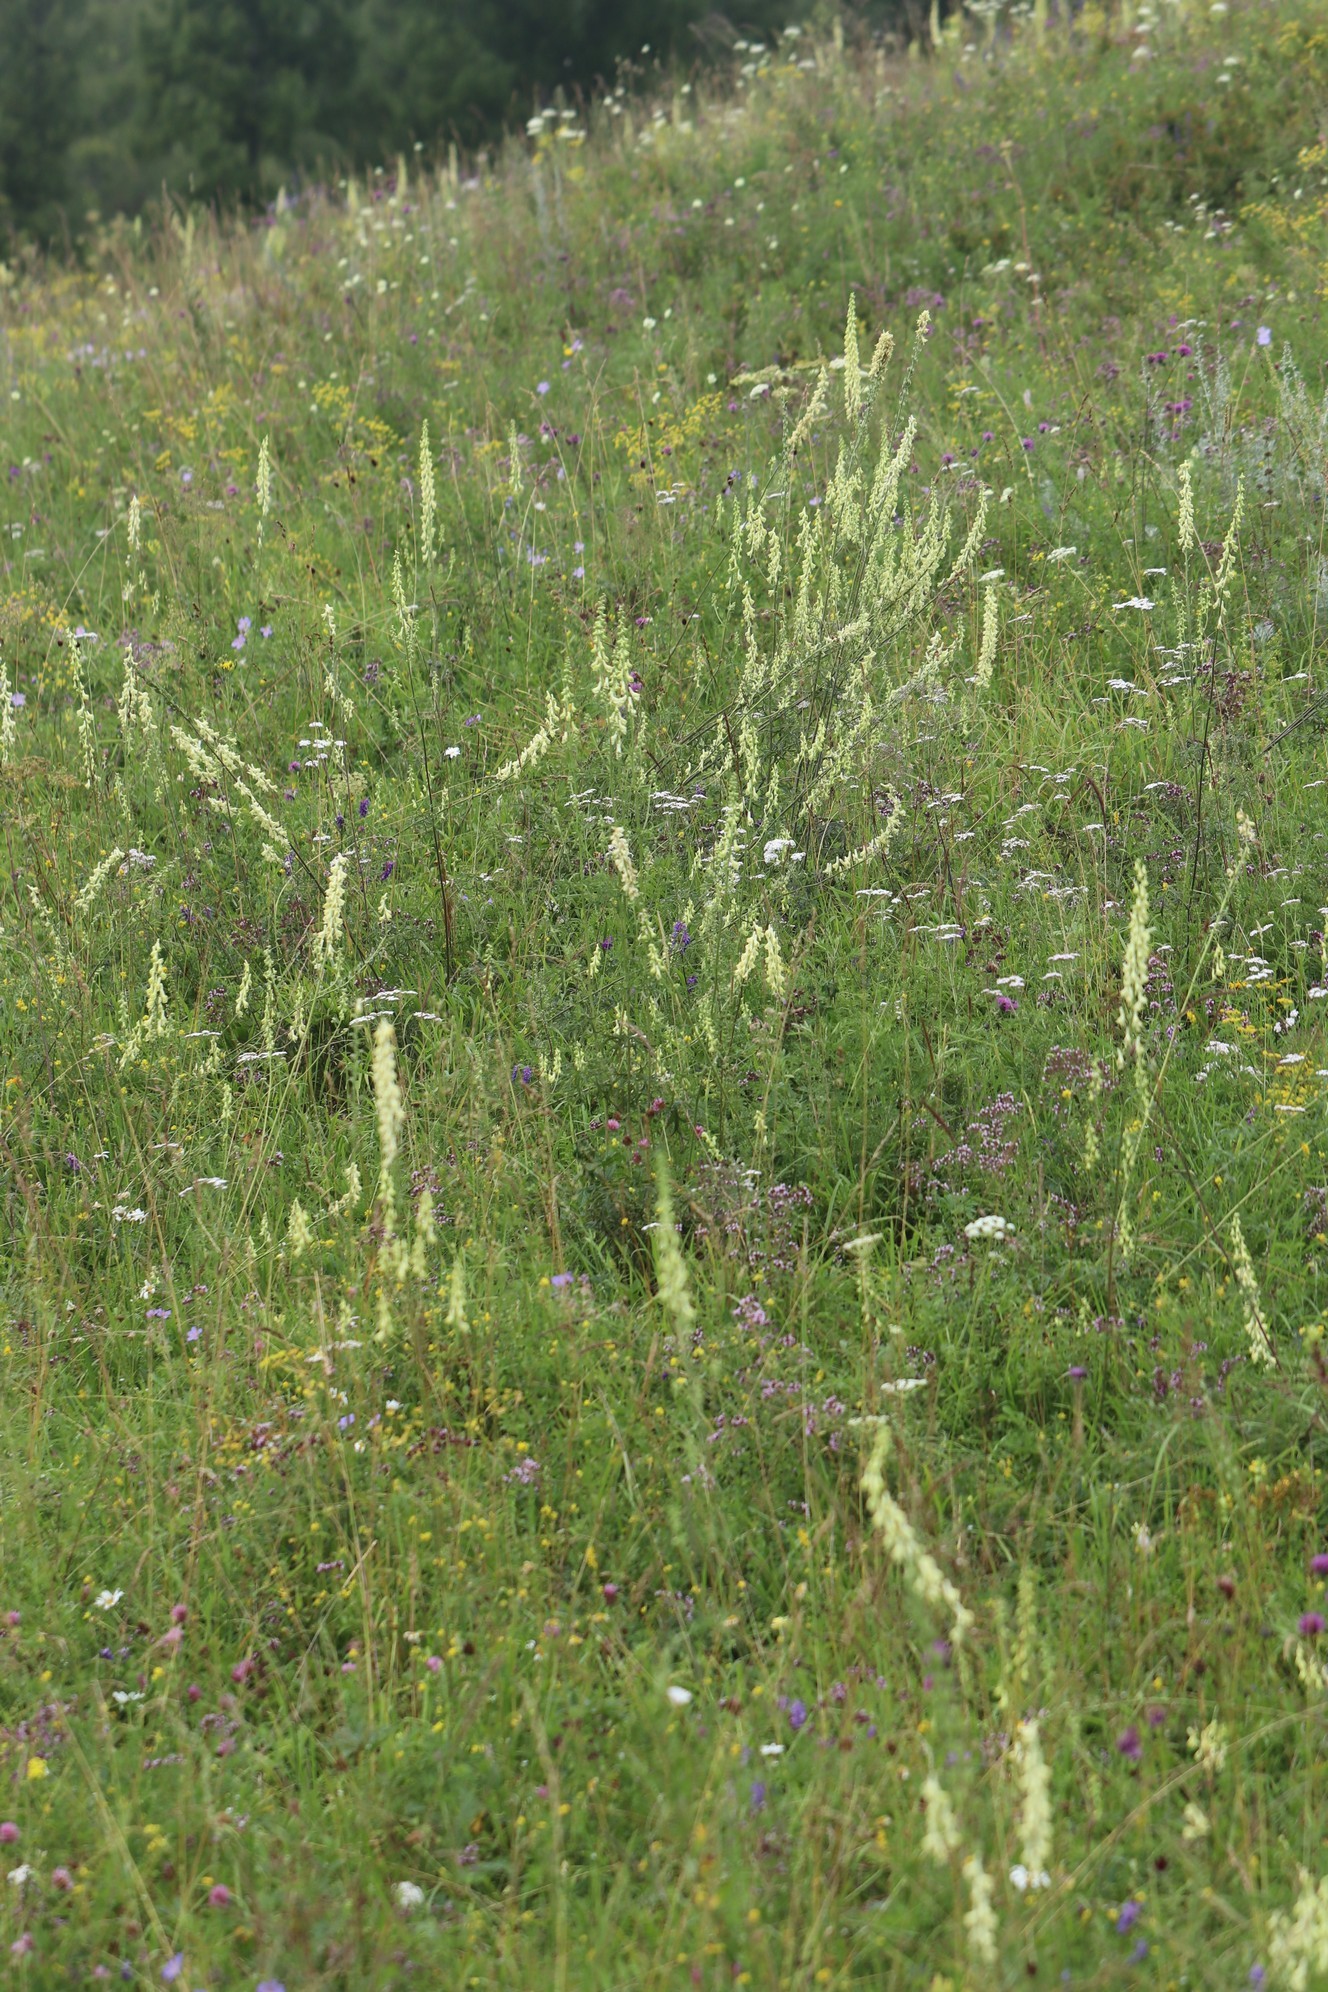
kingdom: Plantae
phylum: Tracheophyta
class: Magnoliopsida
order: Ranunculales
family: Ranunculaceae
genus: Aconitum
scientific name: Aconitum barbatum
